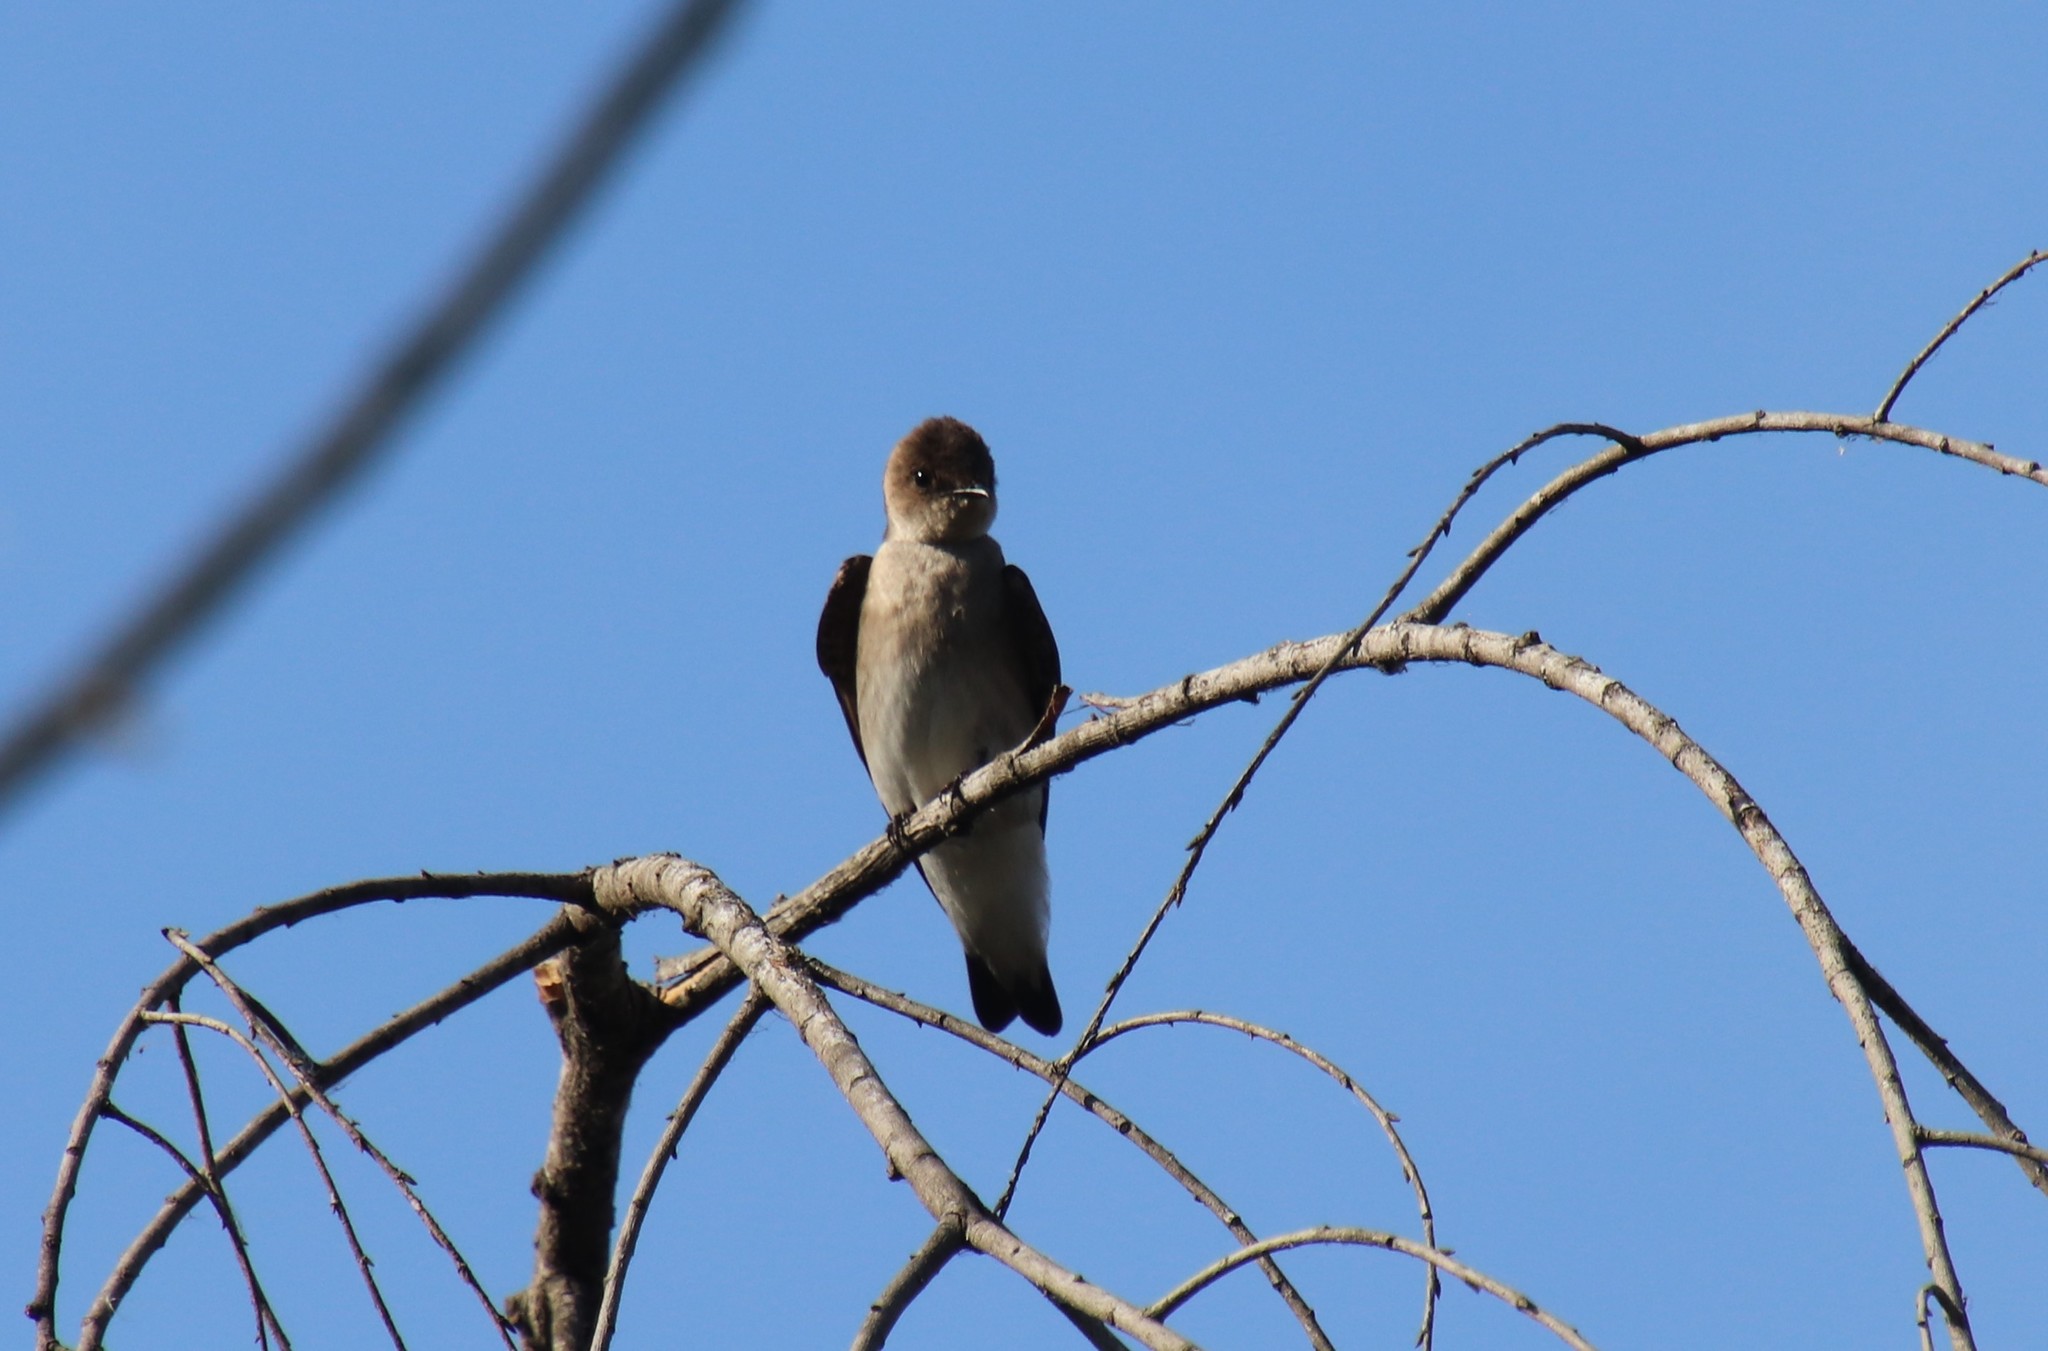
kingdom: Animalia
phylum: Chordata
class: Aves
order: Passeriformes
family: Hirundinidae
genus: Stelgidopteryx
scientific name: Stelgidopteryx serripennis
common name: Northern rough-winged swallow
